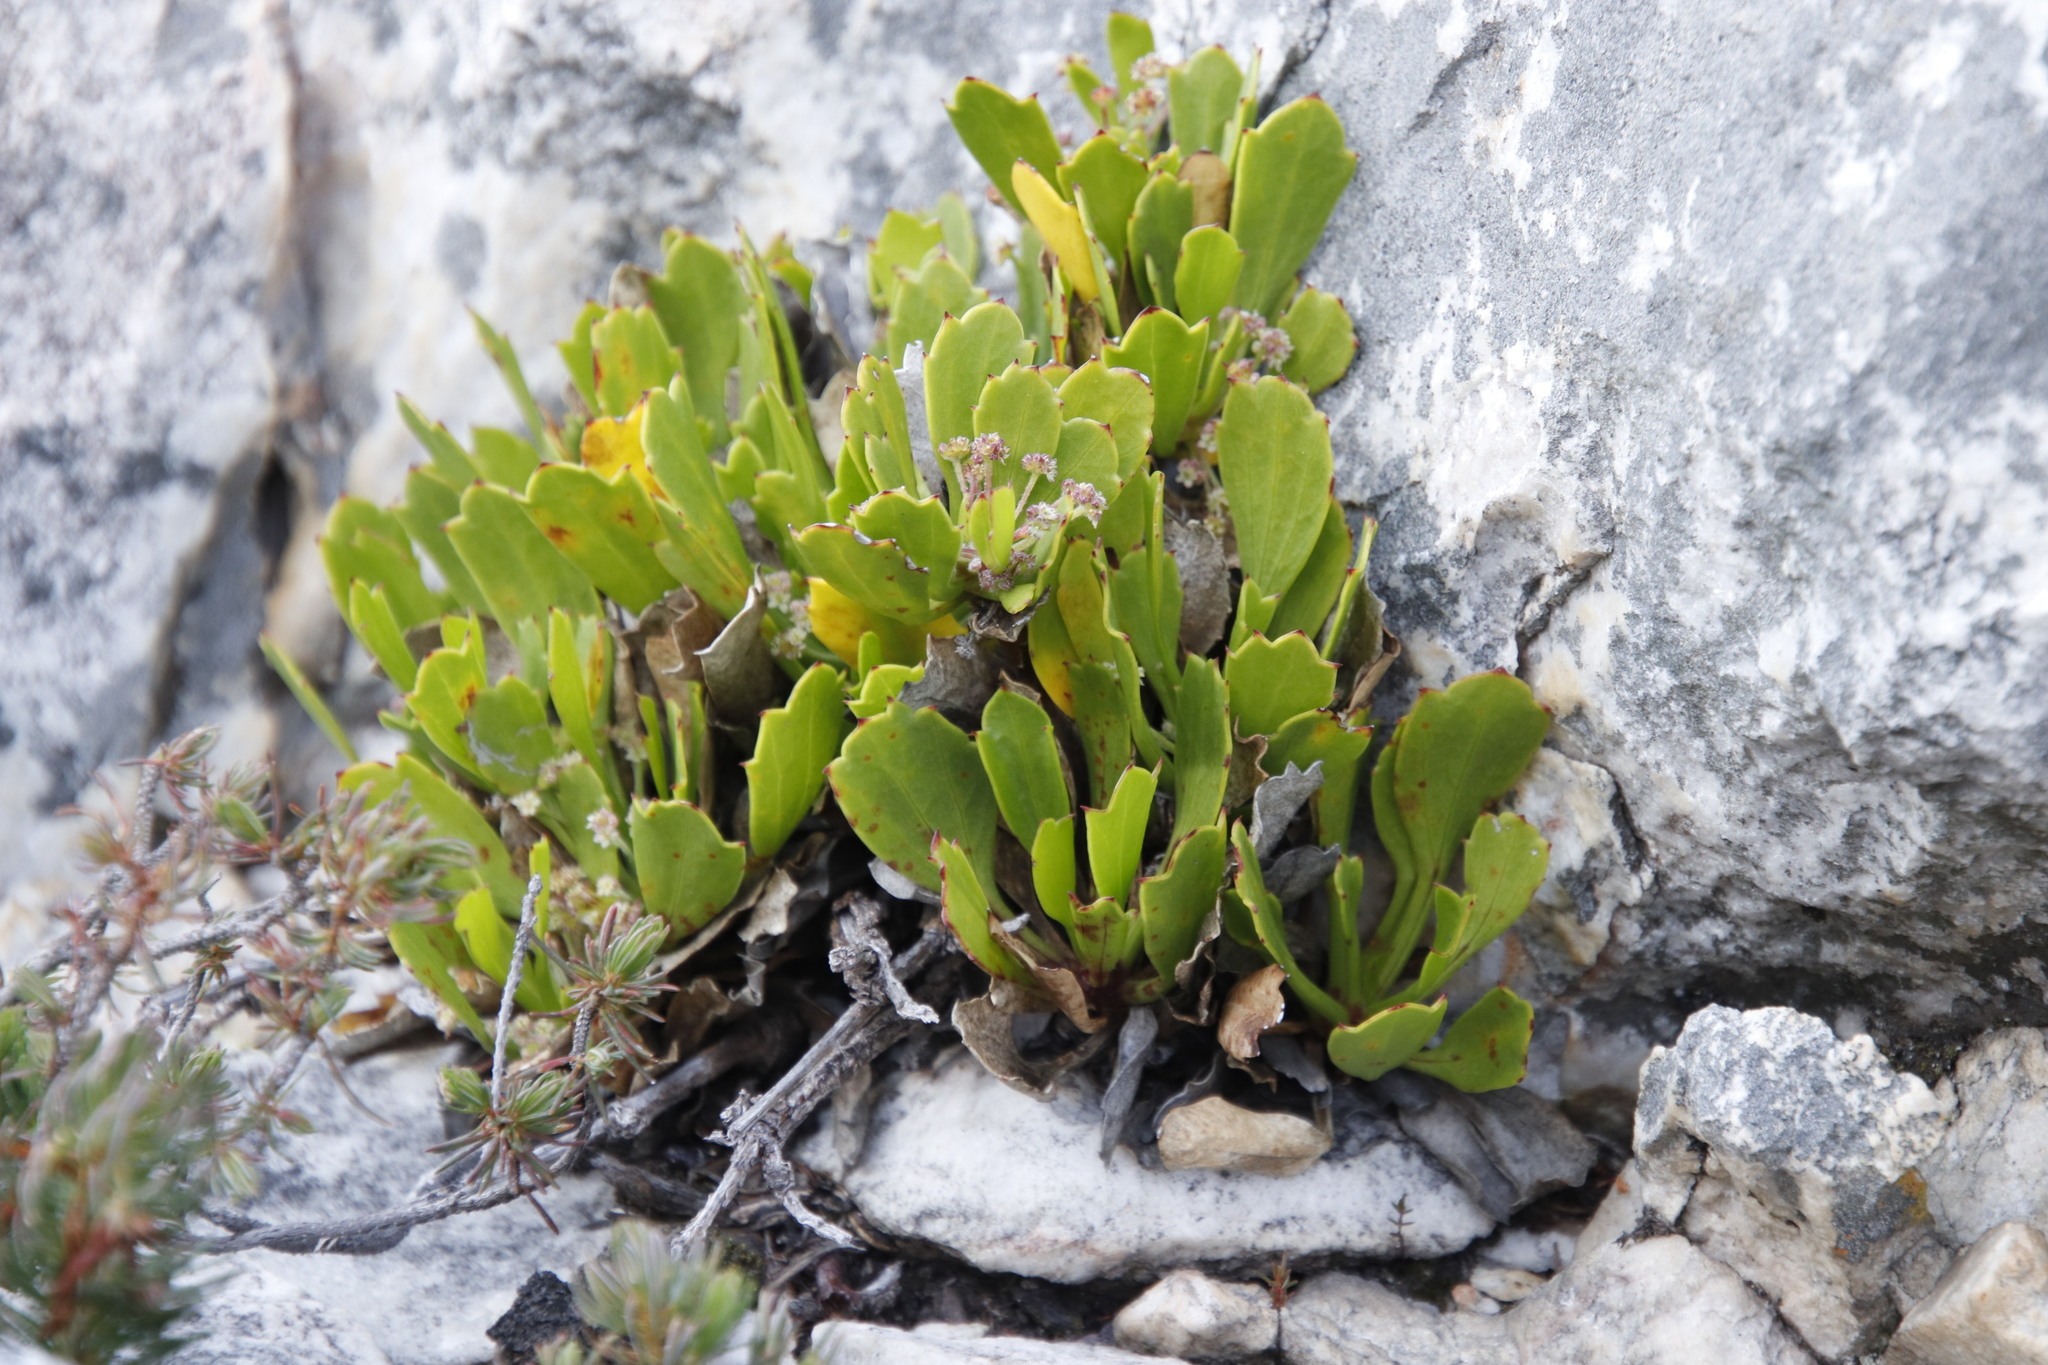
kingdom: Plantae
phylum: Tracheophyta
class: Magnoliopsida
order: Apiales
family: Apiaceae
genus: Centella
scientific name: Centella triloba
